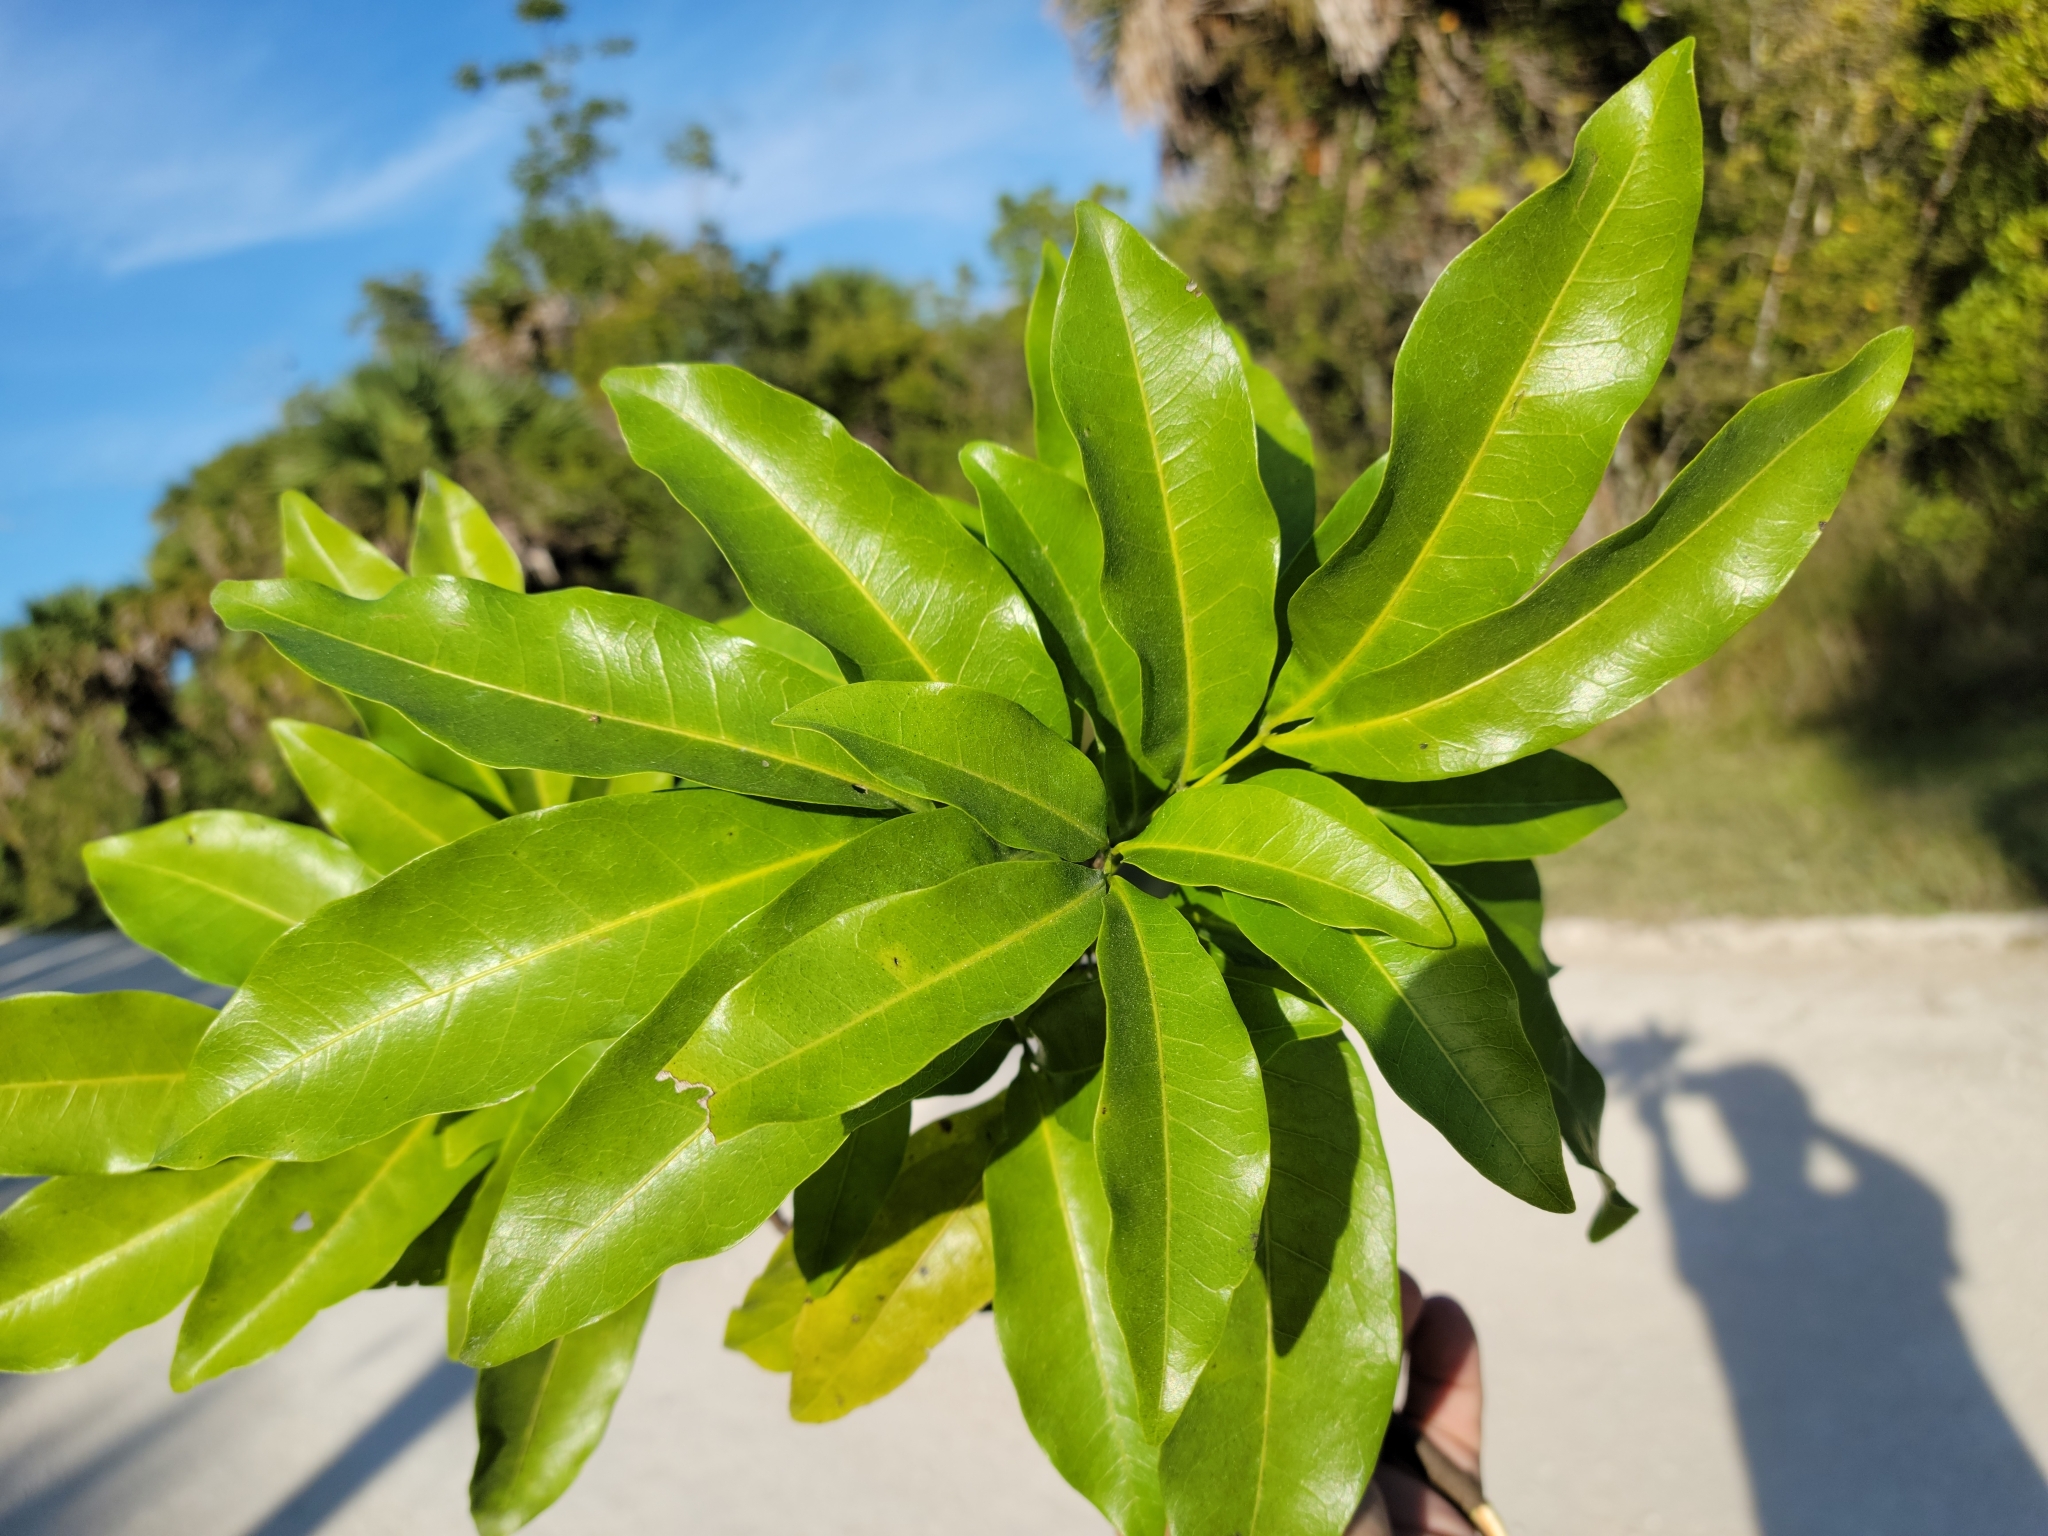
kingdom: Plantae
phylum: Tracheophyta
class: Magnoliopsida
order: Sapindales
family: Sapindaceae
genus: Exothea
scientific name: Exothea paniculata
